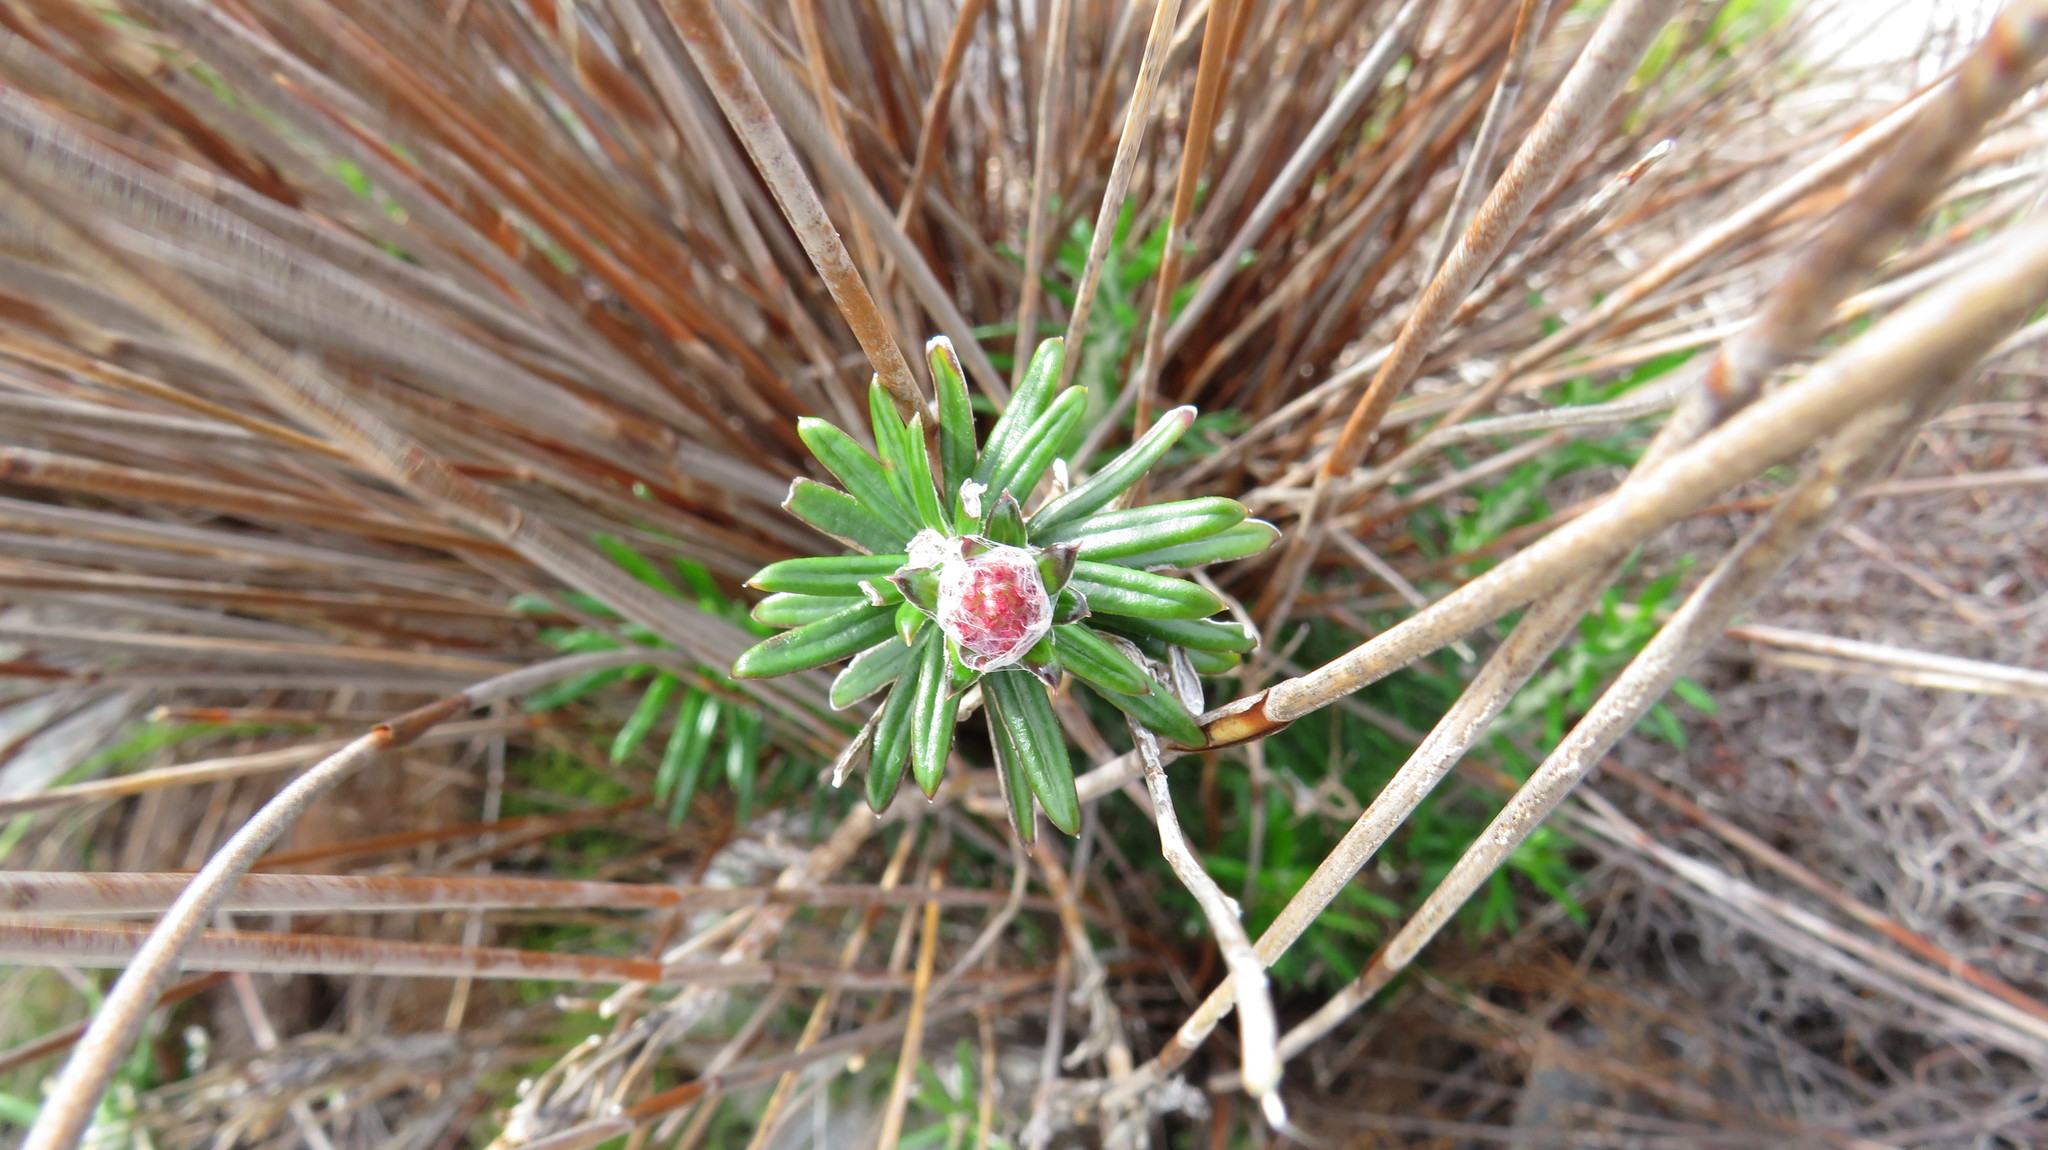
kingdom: Plantae
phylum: Tracheophyta
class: Magnoliopsida
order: Asterales
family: Asteraceae
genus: Anaxeton
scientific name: Anaxeton laeve
